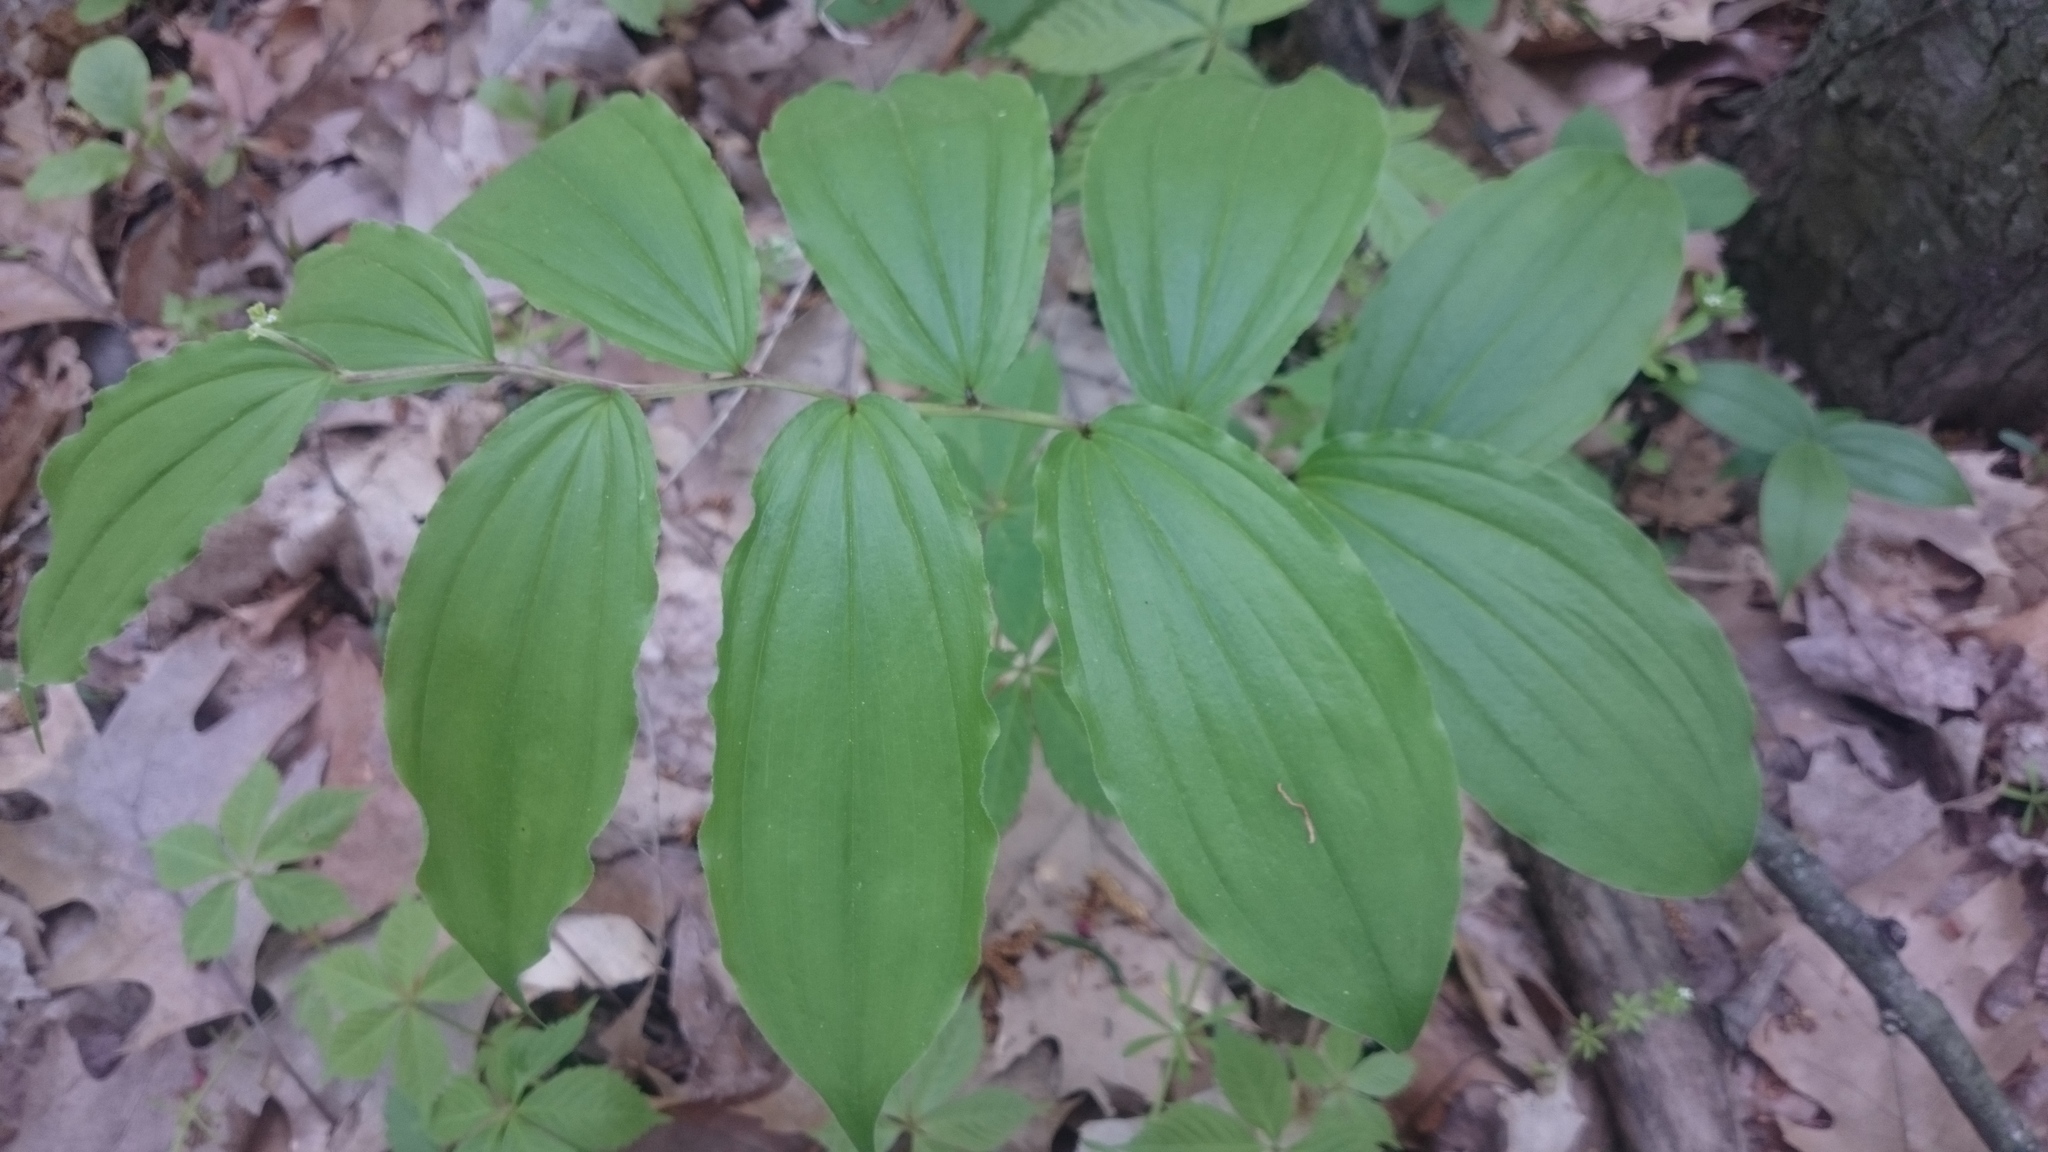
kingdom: Plantae
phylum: Tracheophyta
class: Liliopsida
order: Asparagales
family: Asparagaceae
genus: Maianthemum
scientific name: Maianthemum racemosum
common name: False spikenard
